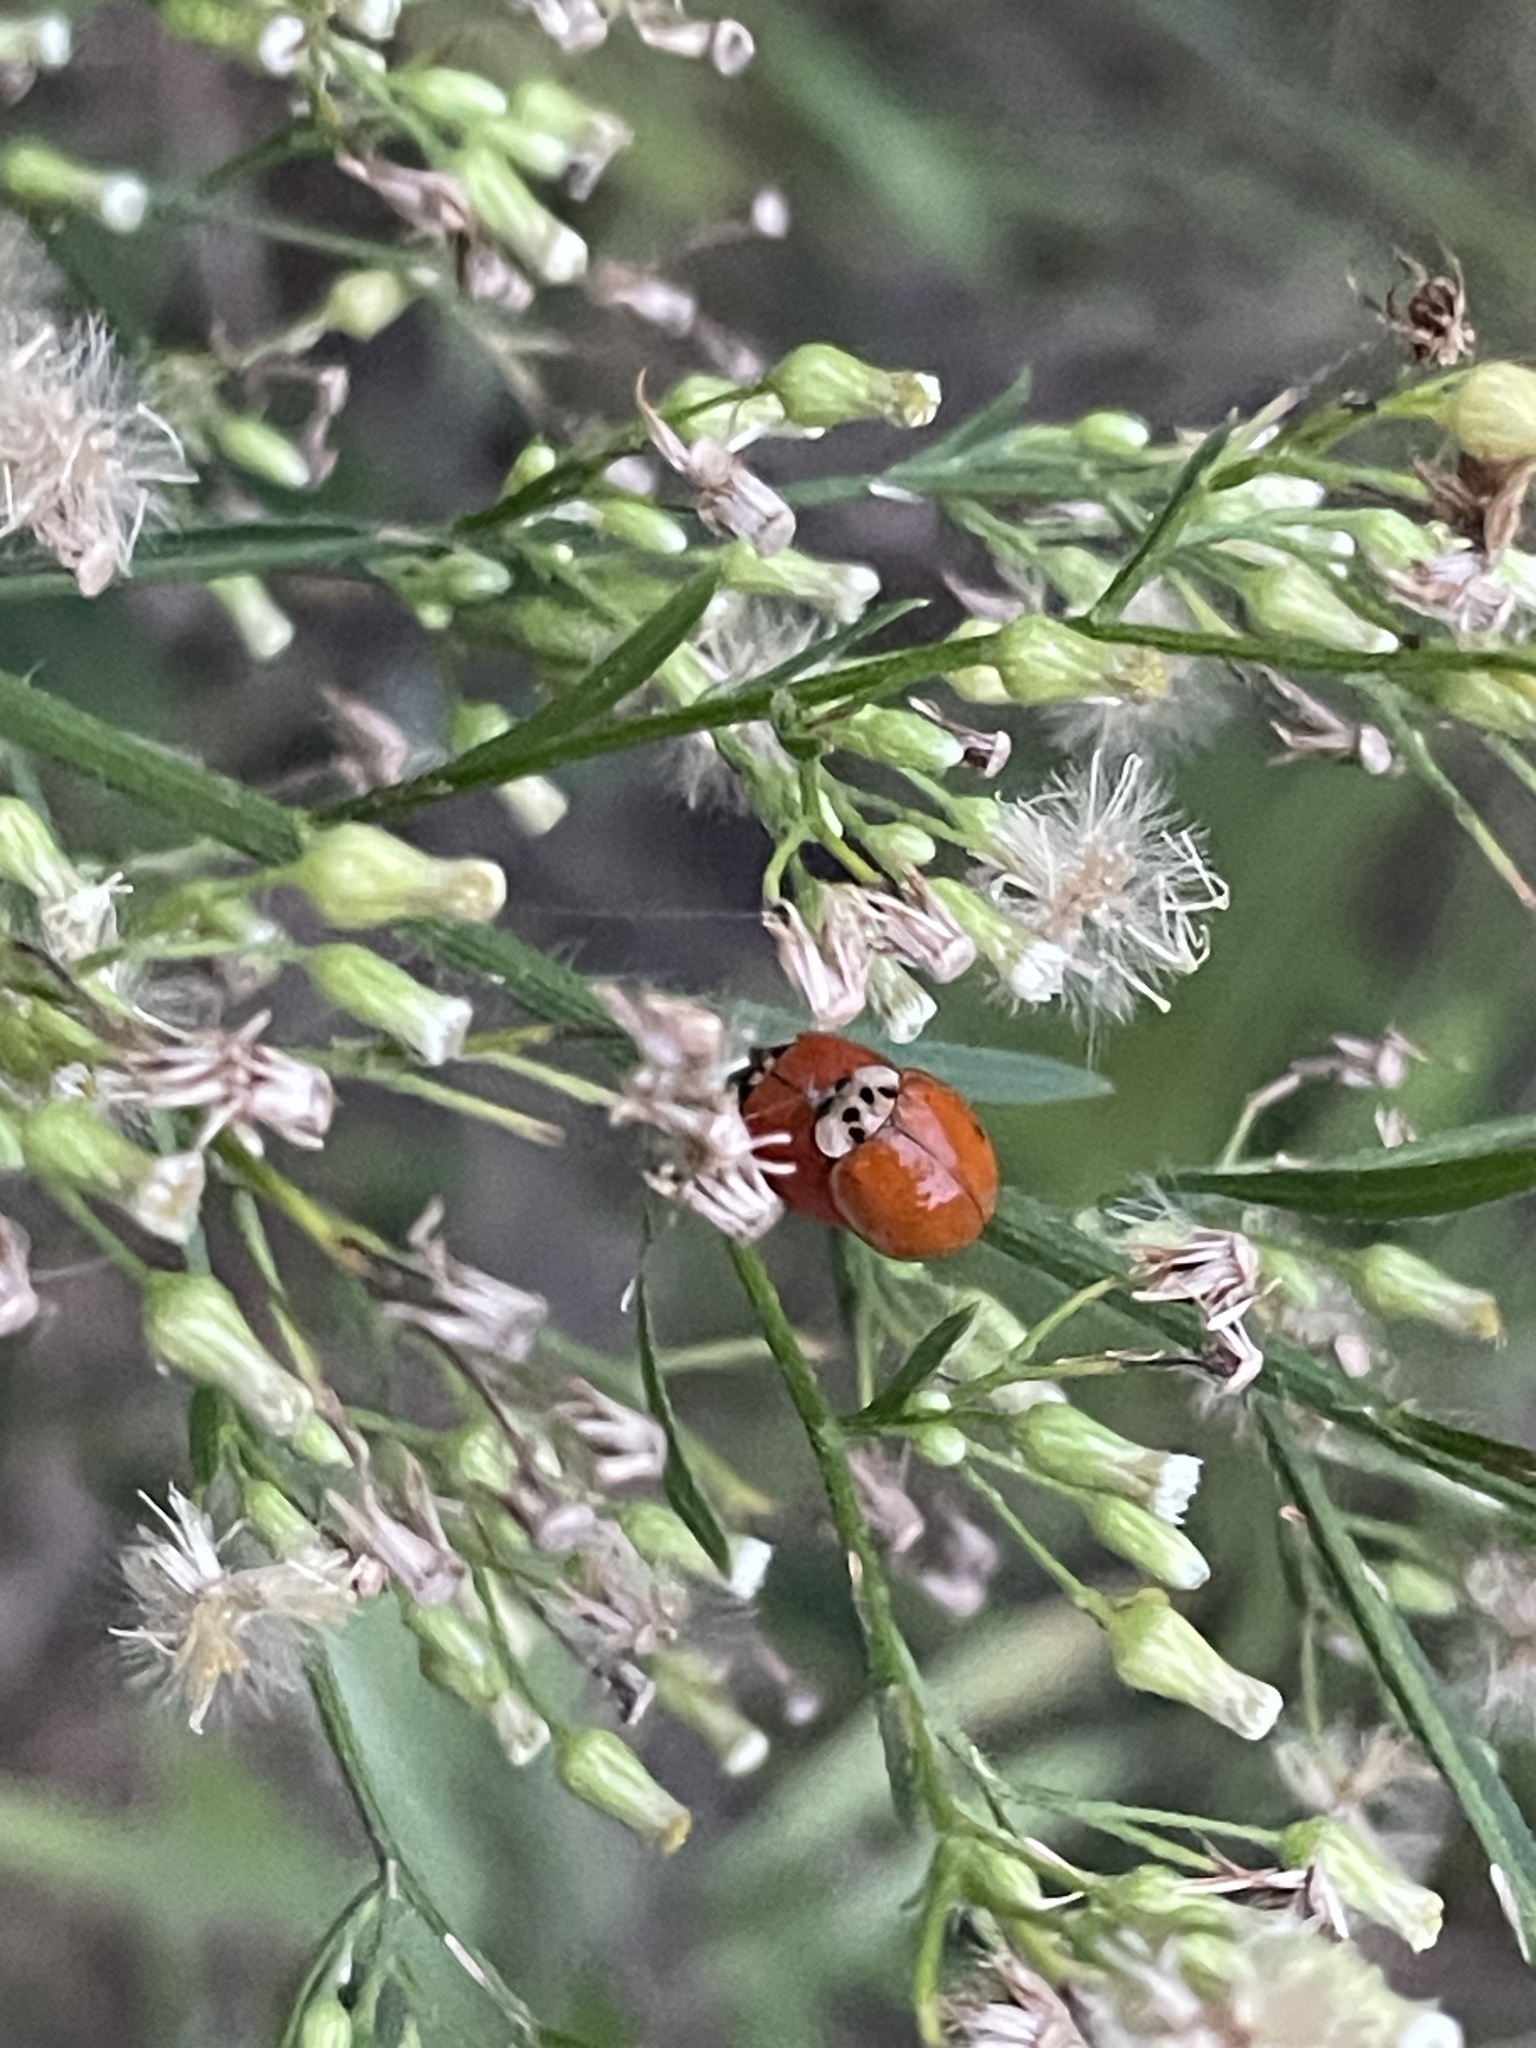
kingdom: Animalia
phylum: Arthropoda
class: Insecta
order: Coleoptera
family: Coccinellidae
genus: Harmonia
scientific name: Harmonia axyridis
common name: Harlequin ladybird
